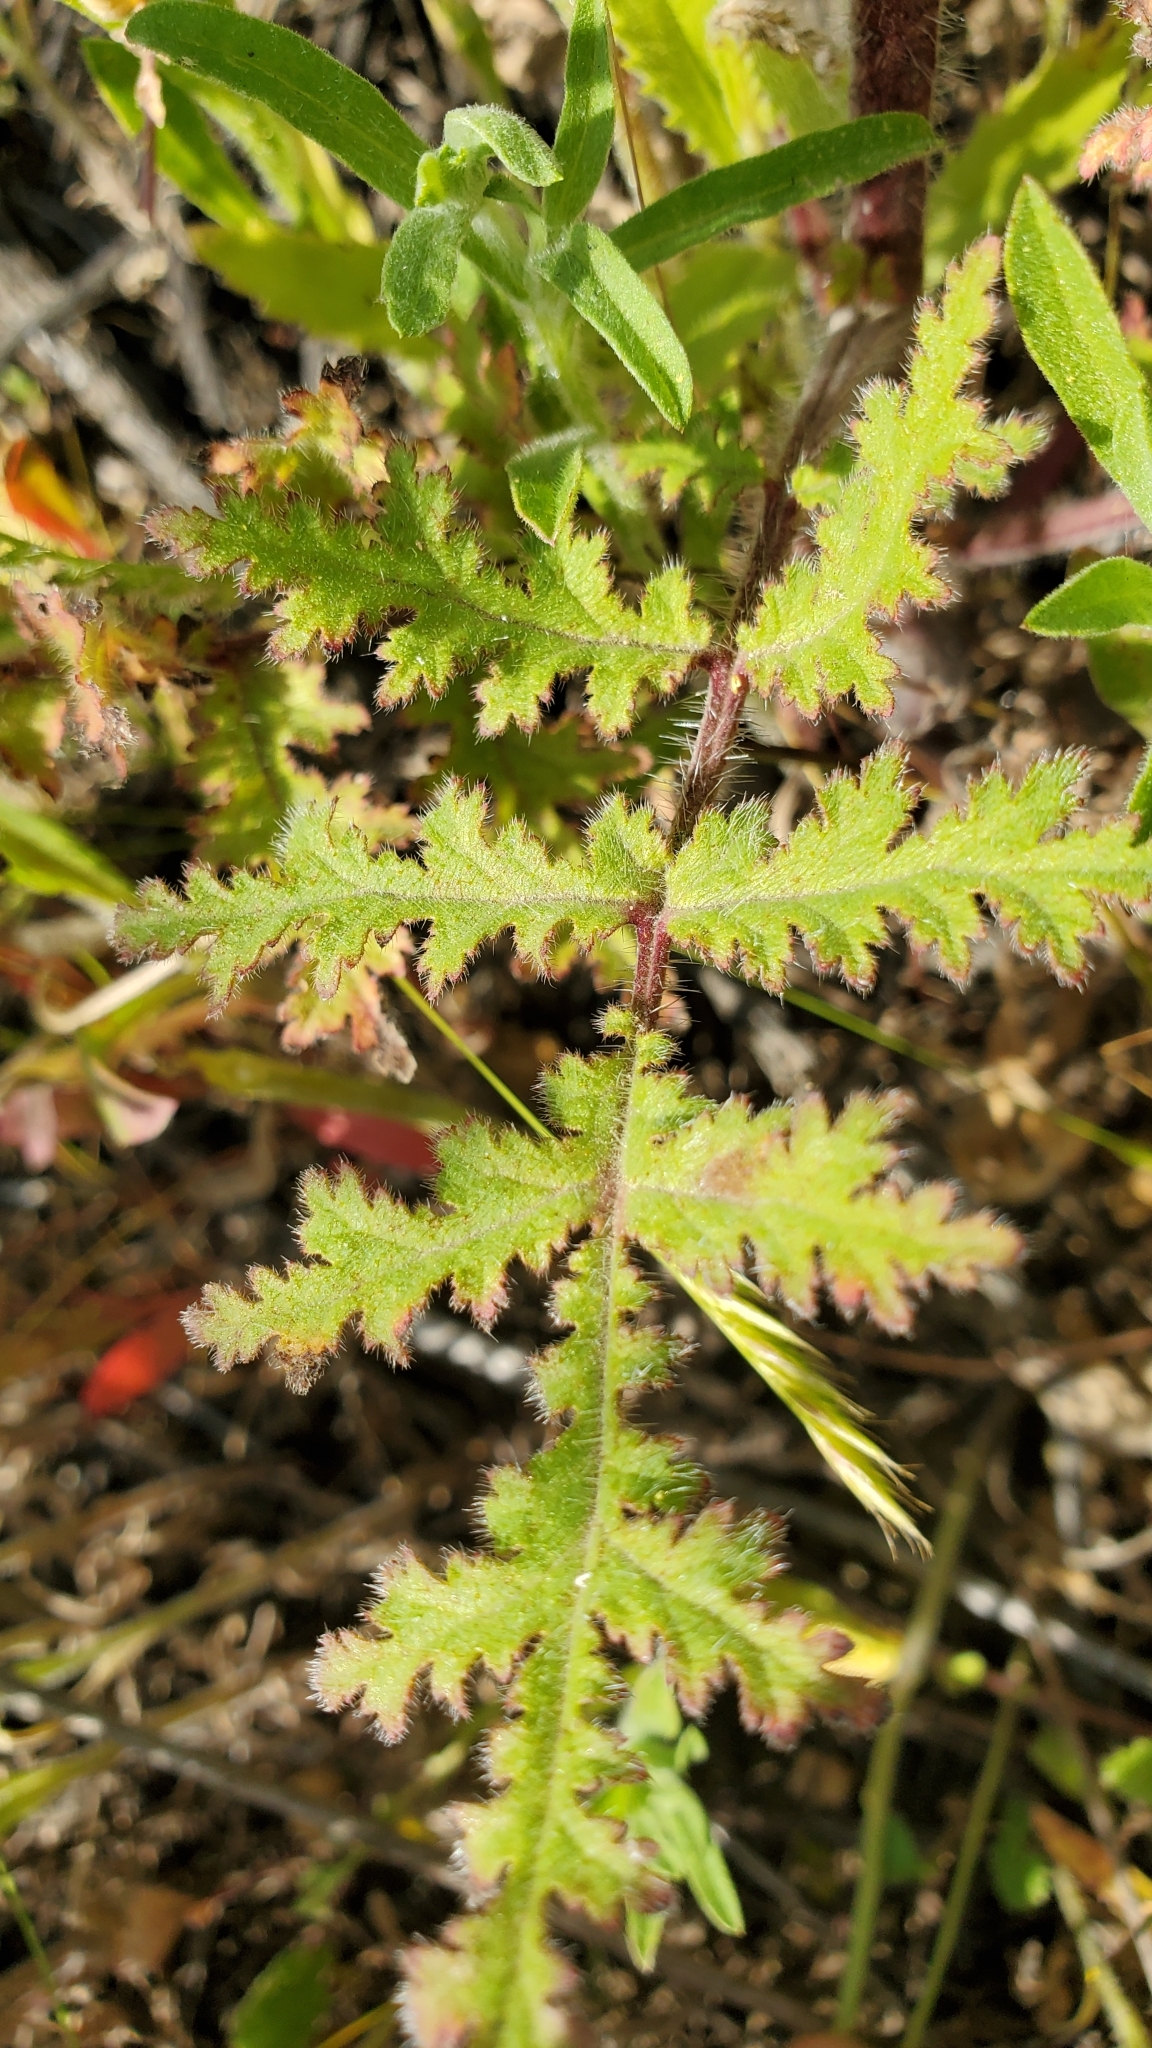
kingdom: Plantae
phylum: Tracheophyta
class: Magnoliopsida
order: Boraginales
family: Hydrophyllaceae
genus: Phacelia
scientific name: Phacelia cicutaria
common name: Caterpillar phacelia
